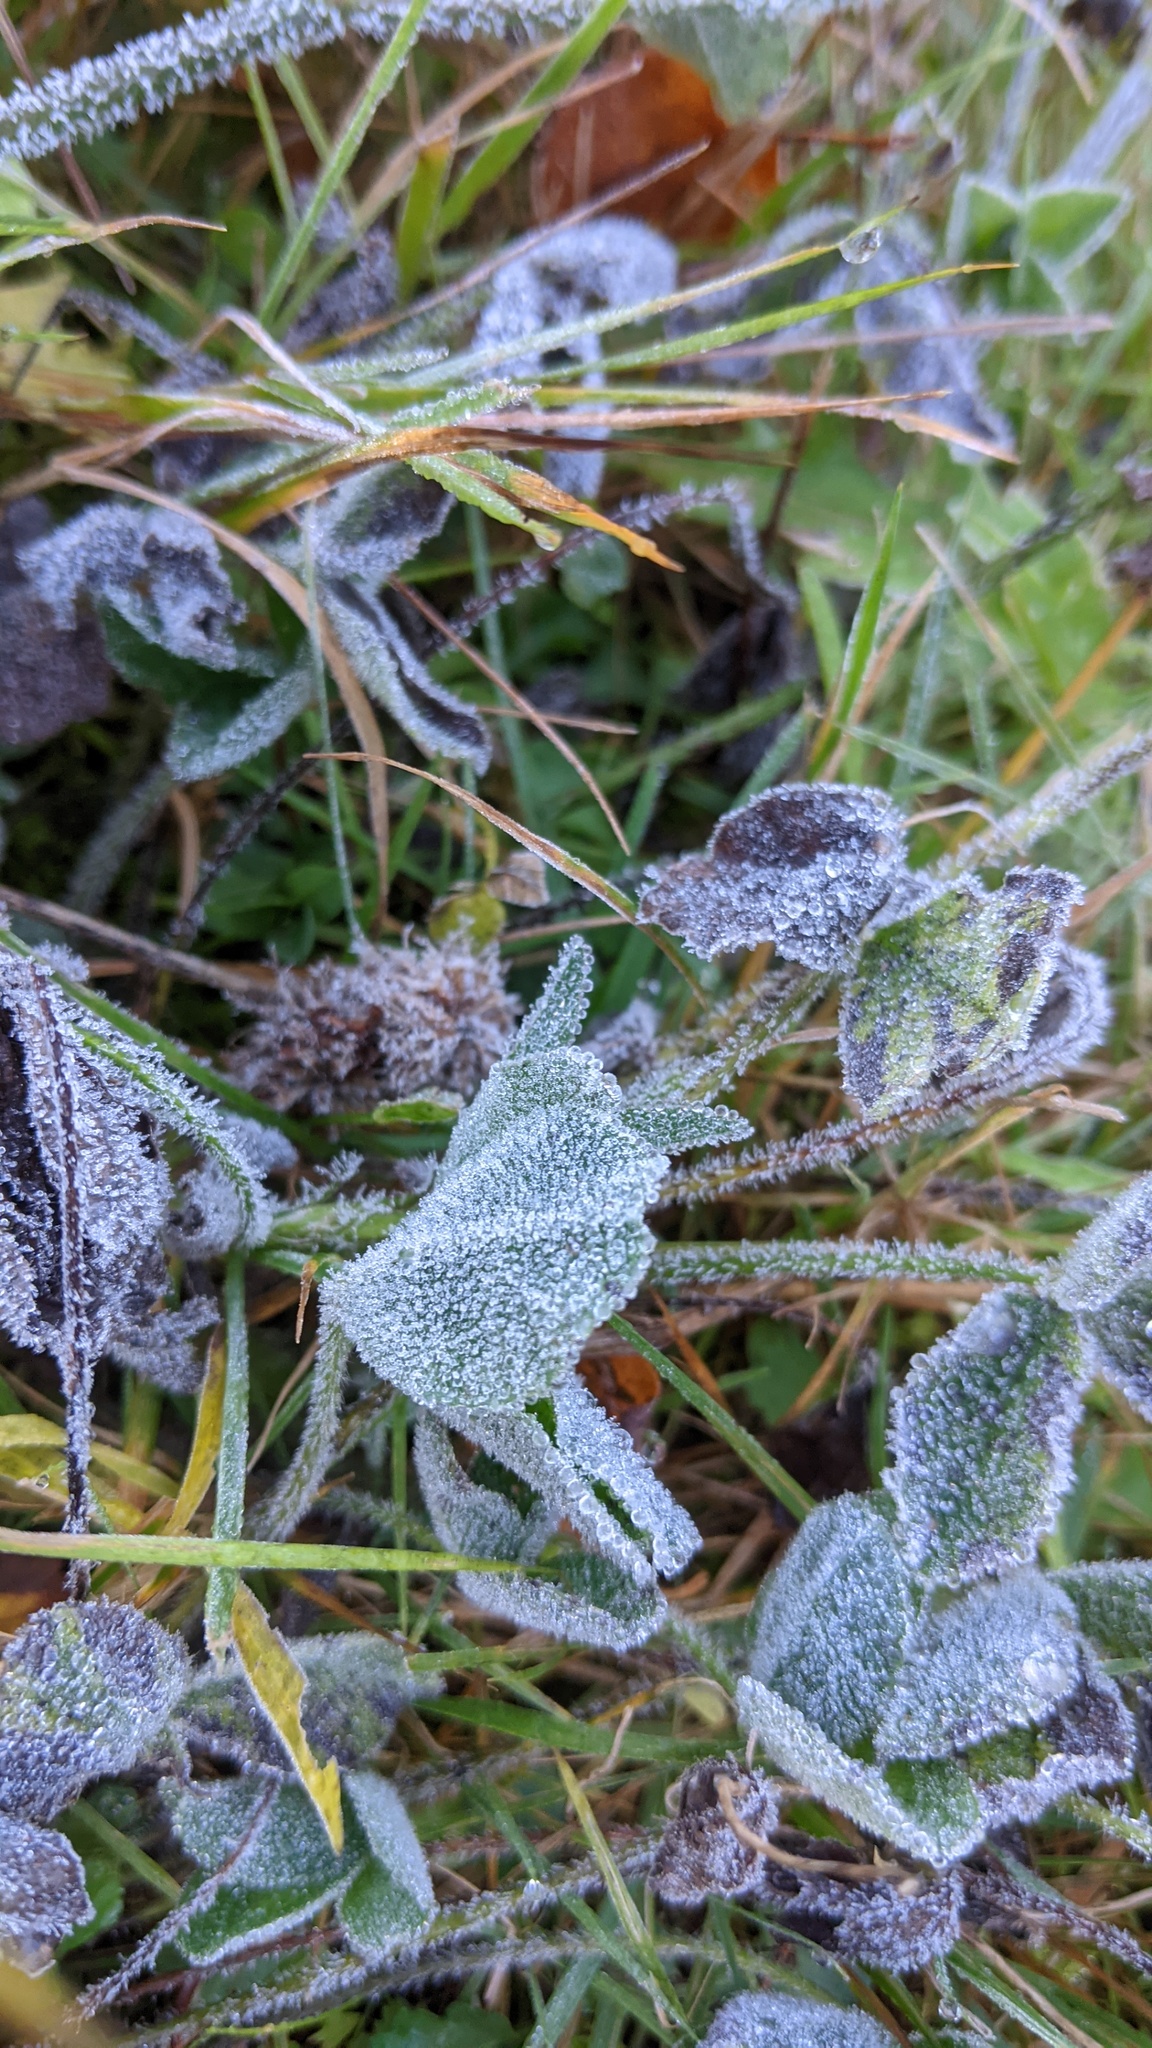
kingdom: Plantae
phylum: Tracheophyta
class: Magnoliopsida
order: Fabales
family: Fabaceae
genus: Trifolium
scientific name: Trifolium pratense
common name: Red clover
